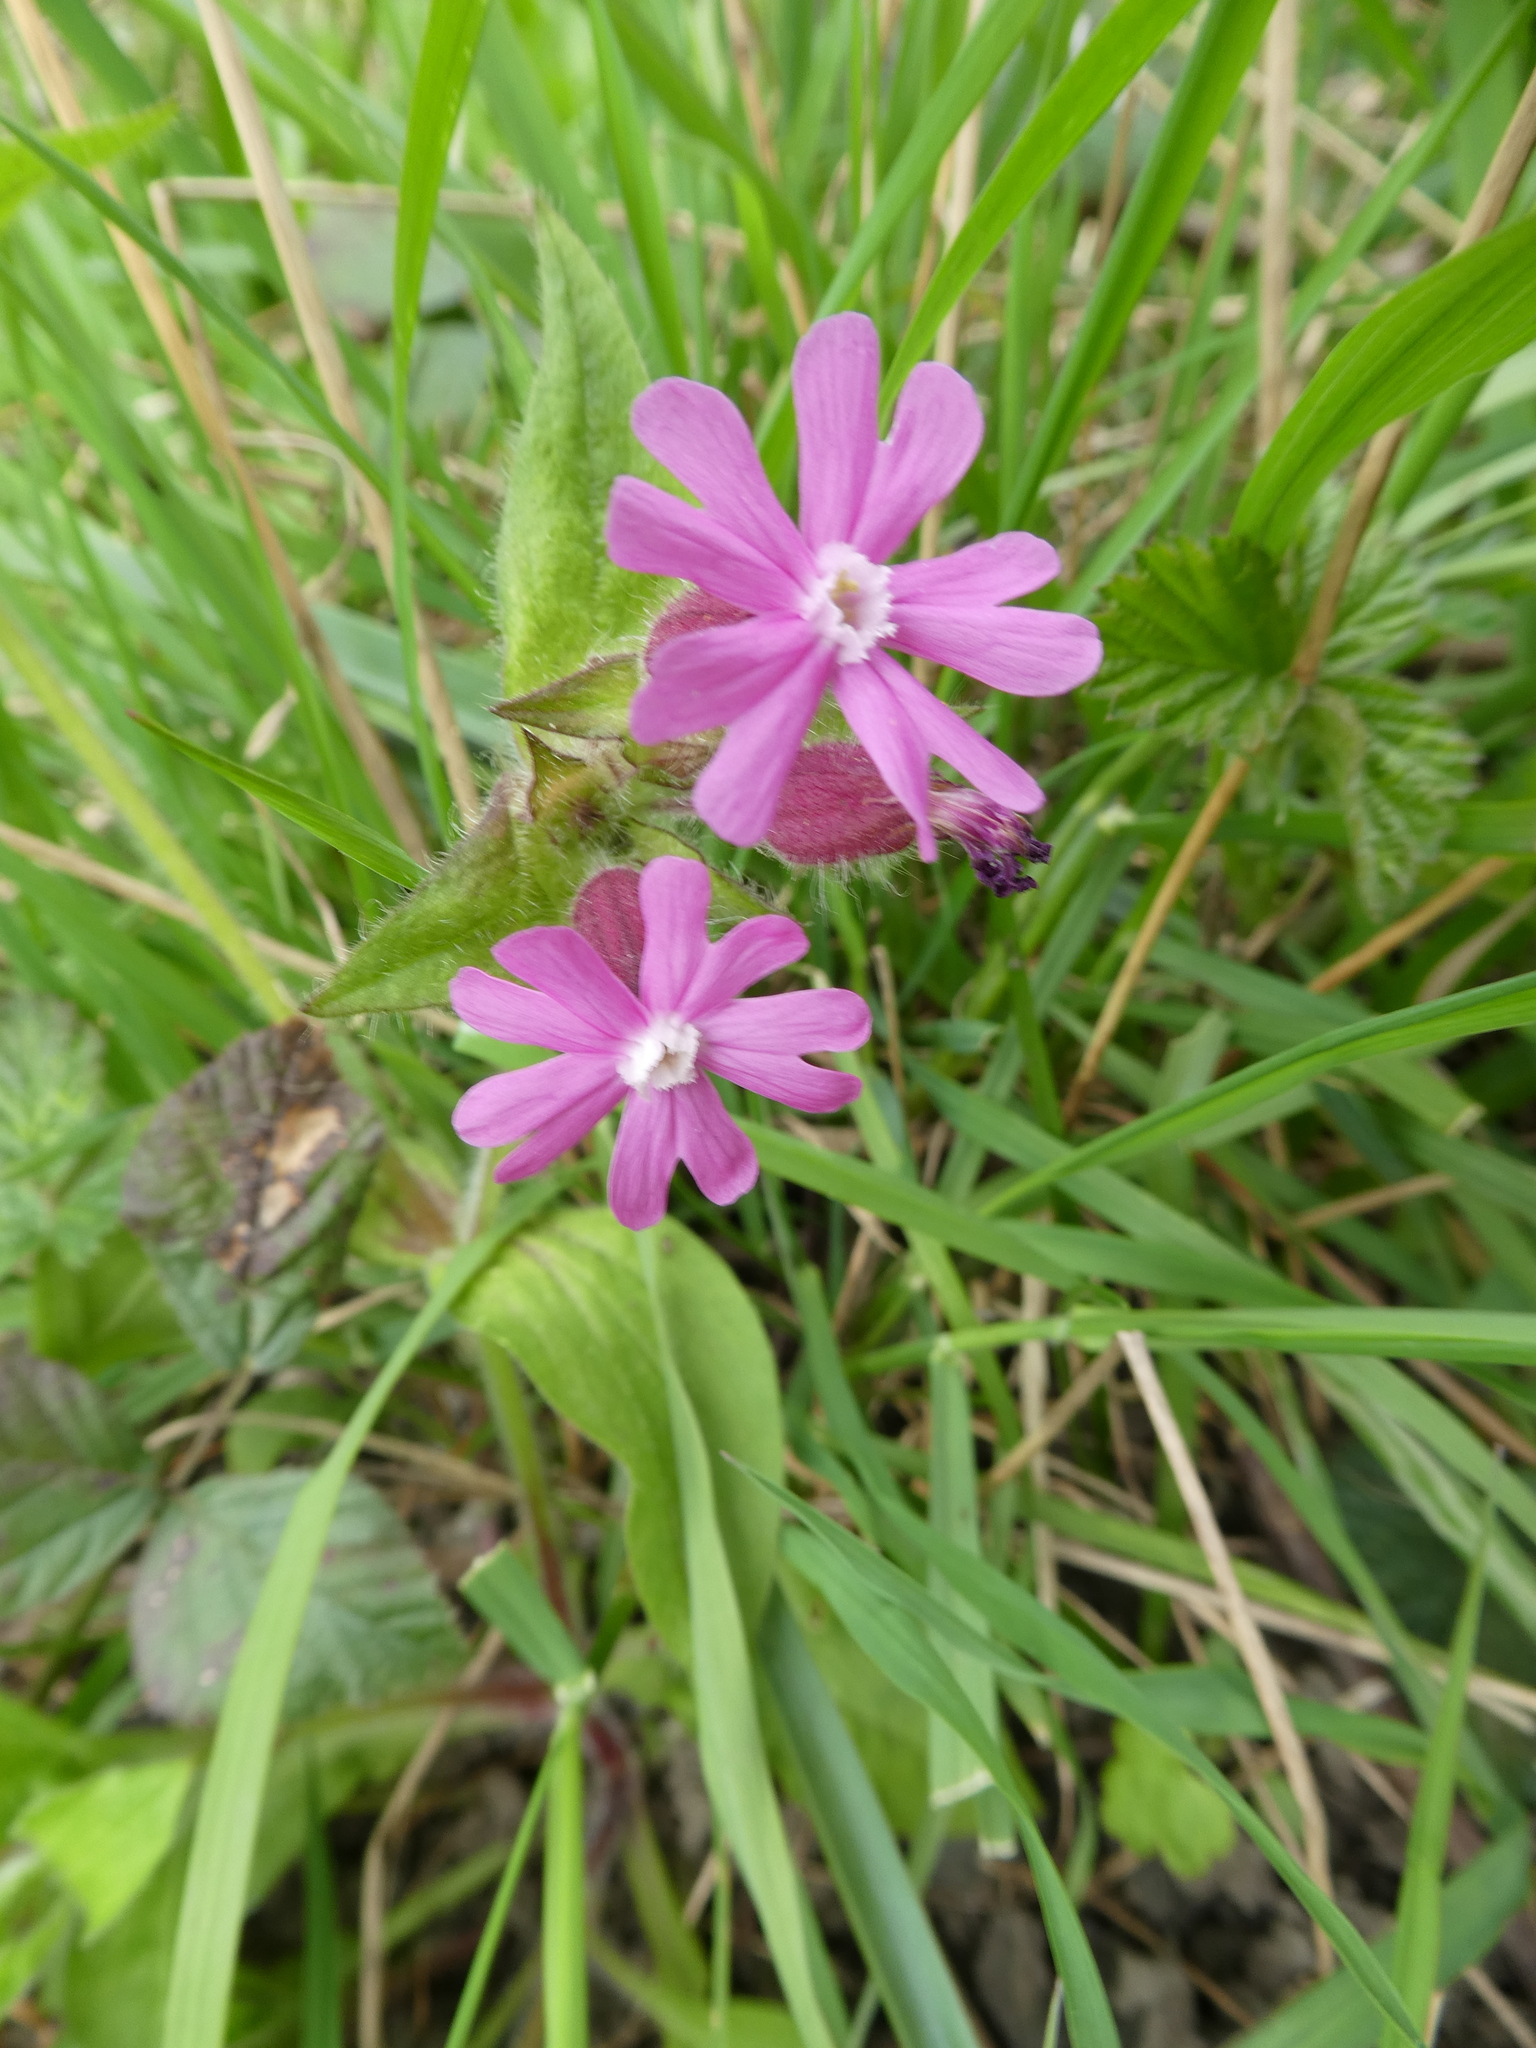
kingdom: Plantae
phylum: Tracheophyta
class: Magnoliopsida
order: Caryophyllales
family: Caryophyllaceae
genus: Silene
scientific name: Silene dioica
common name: Red campion
